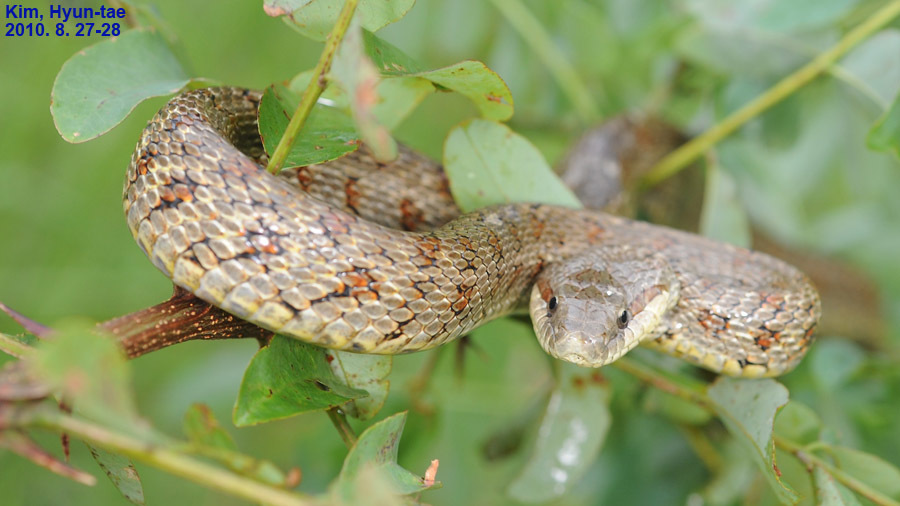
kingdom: Animalia
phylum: Chordata
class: Squamata
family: Colubridae
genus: Elaphe
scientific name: Elaphe dione
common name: Dione ratsnake
